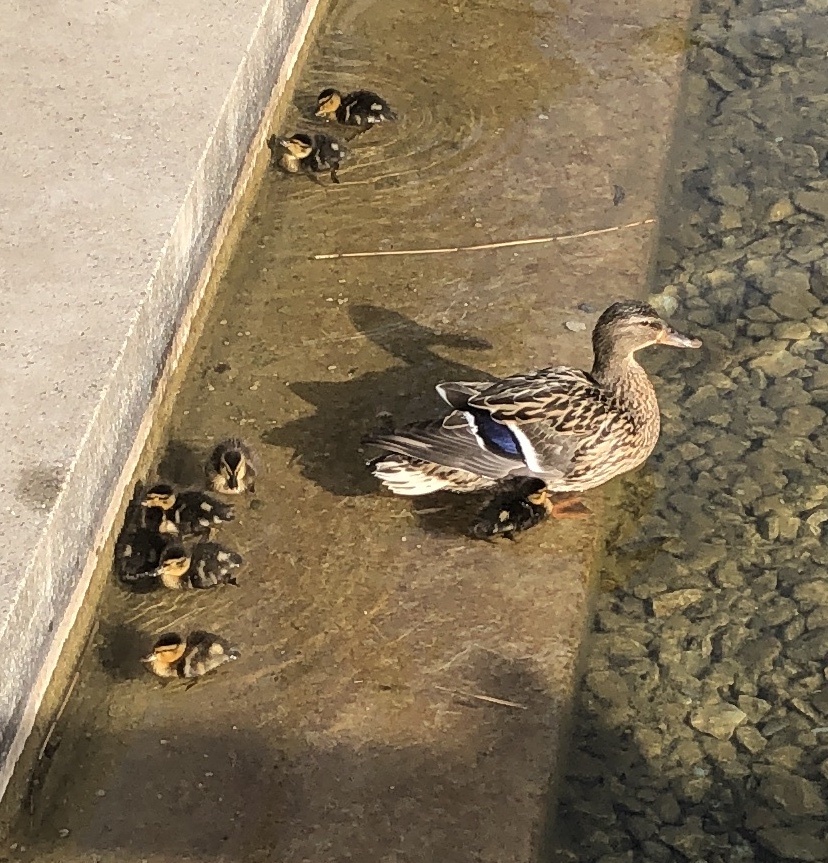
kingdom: Animalia
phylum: Chordata
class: Aves
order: Anseriformes
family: Anatidae
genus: Anas
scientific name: Anas platyrhynchos
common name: Mallard
